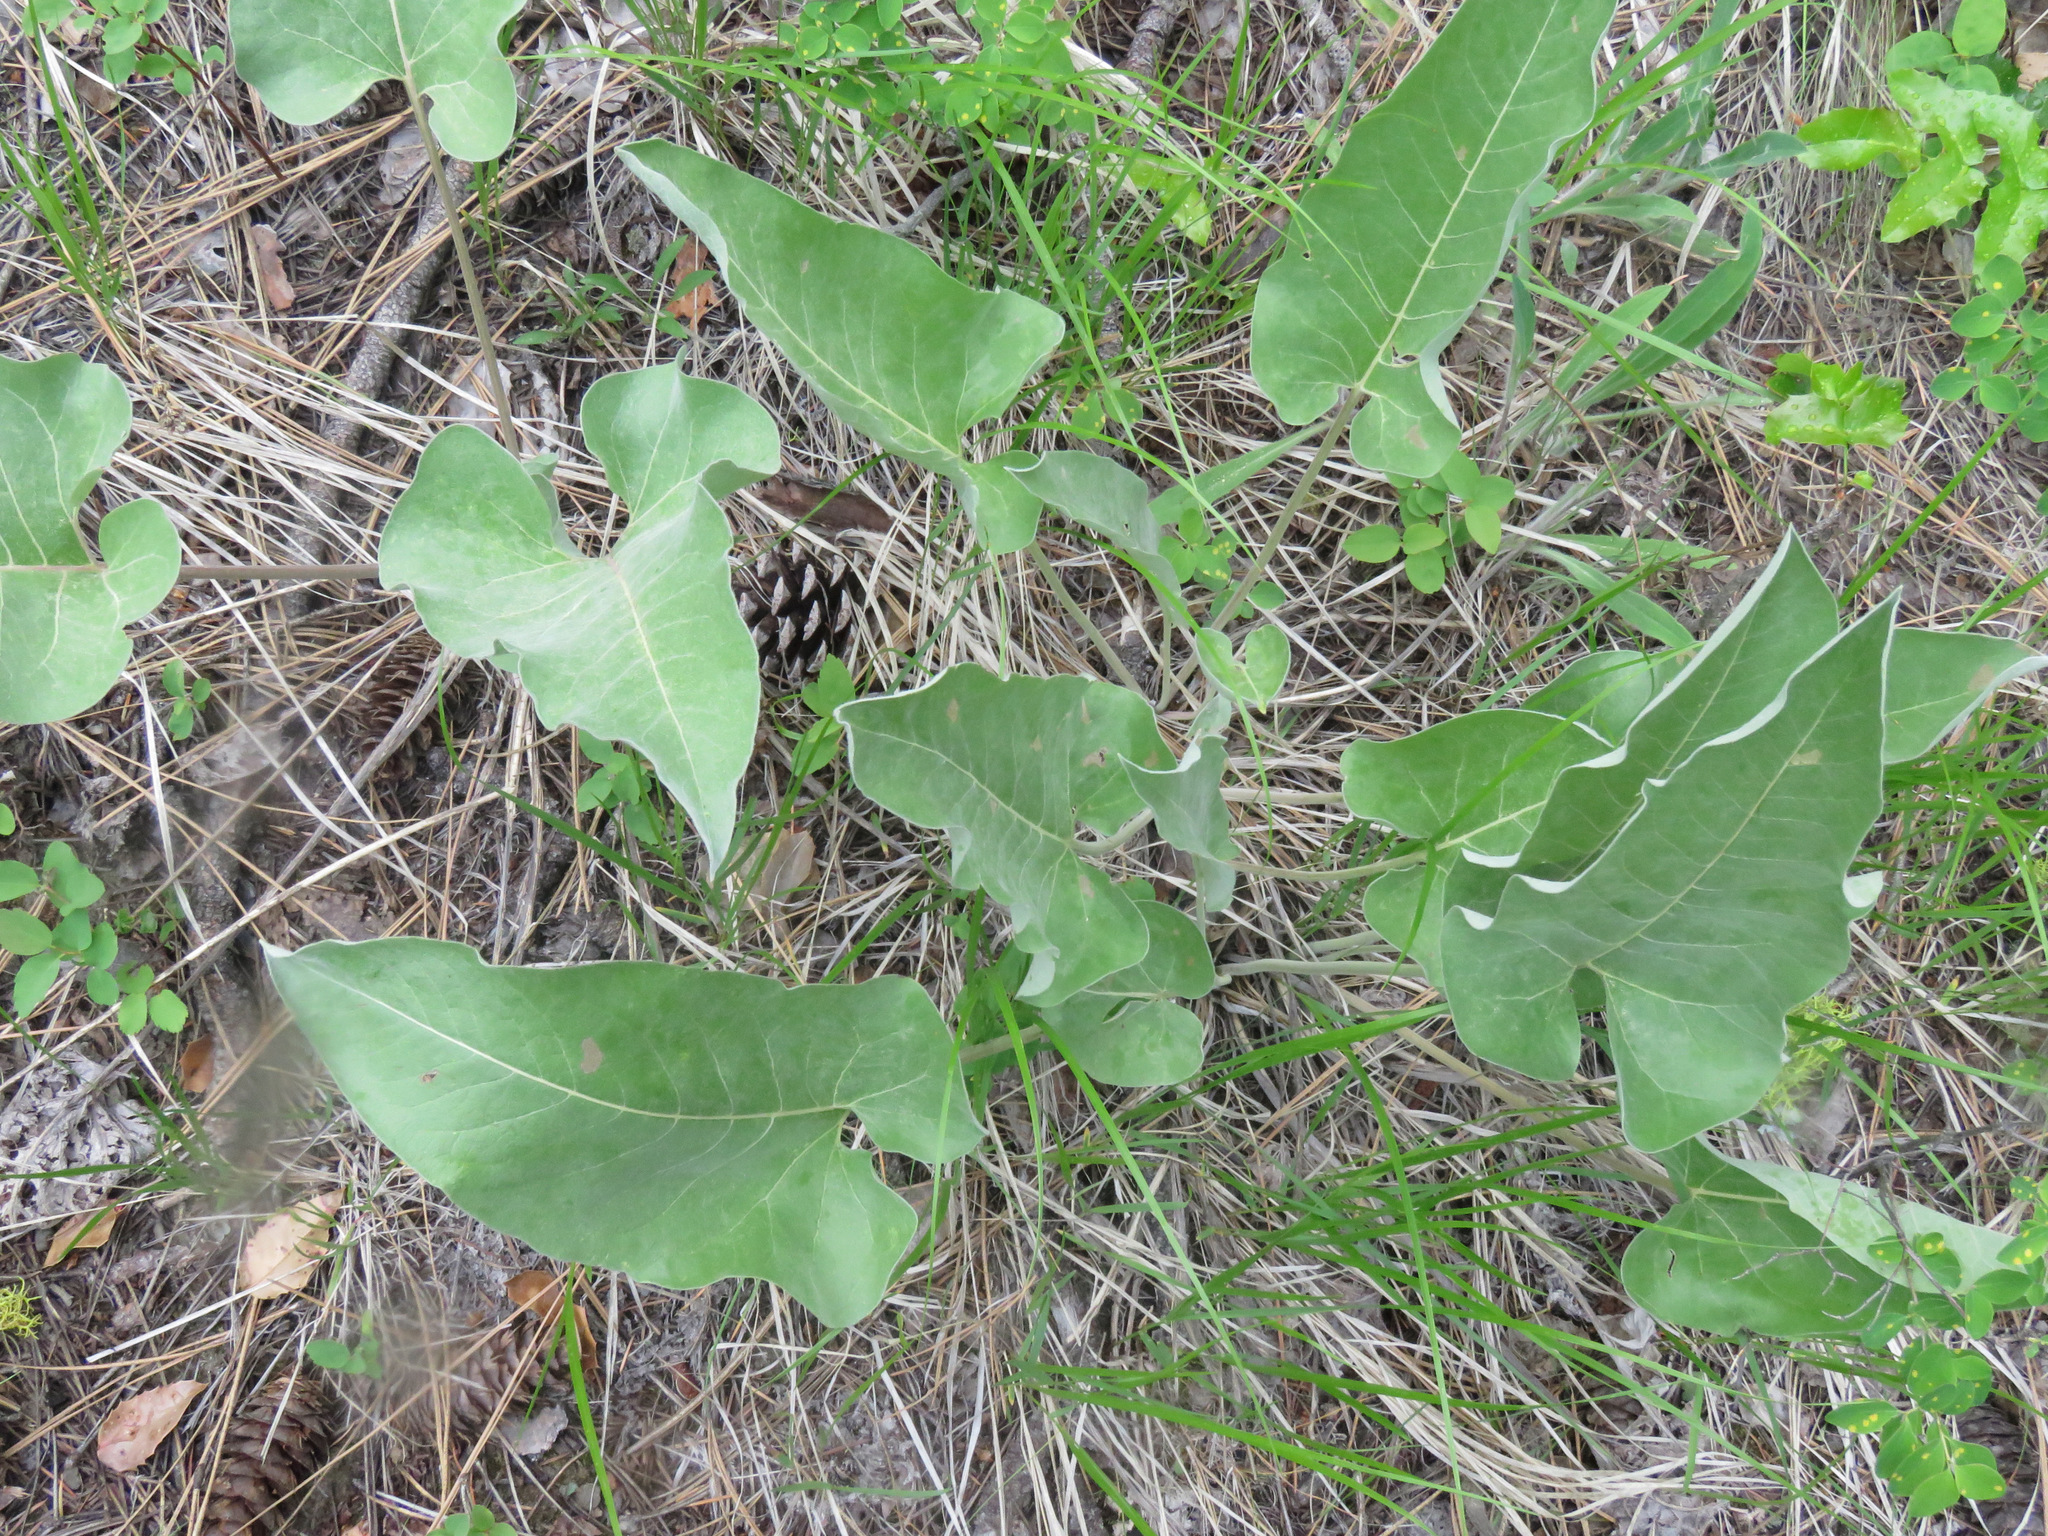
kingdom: Plantae
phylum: Tracheophyta
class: Magnoliopsida
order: Asterales
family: Asteraceae
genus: Wyethia
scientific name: Wyethia sagittata
